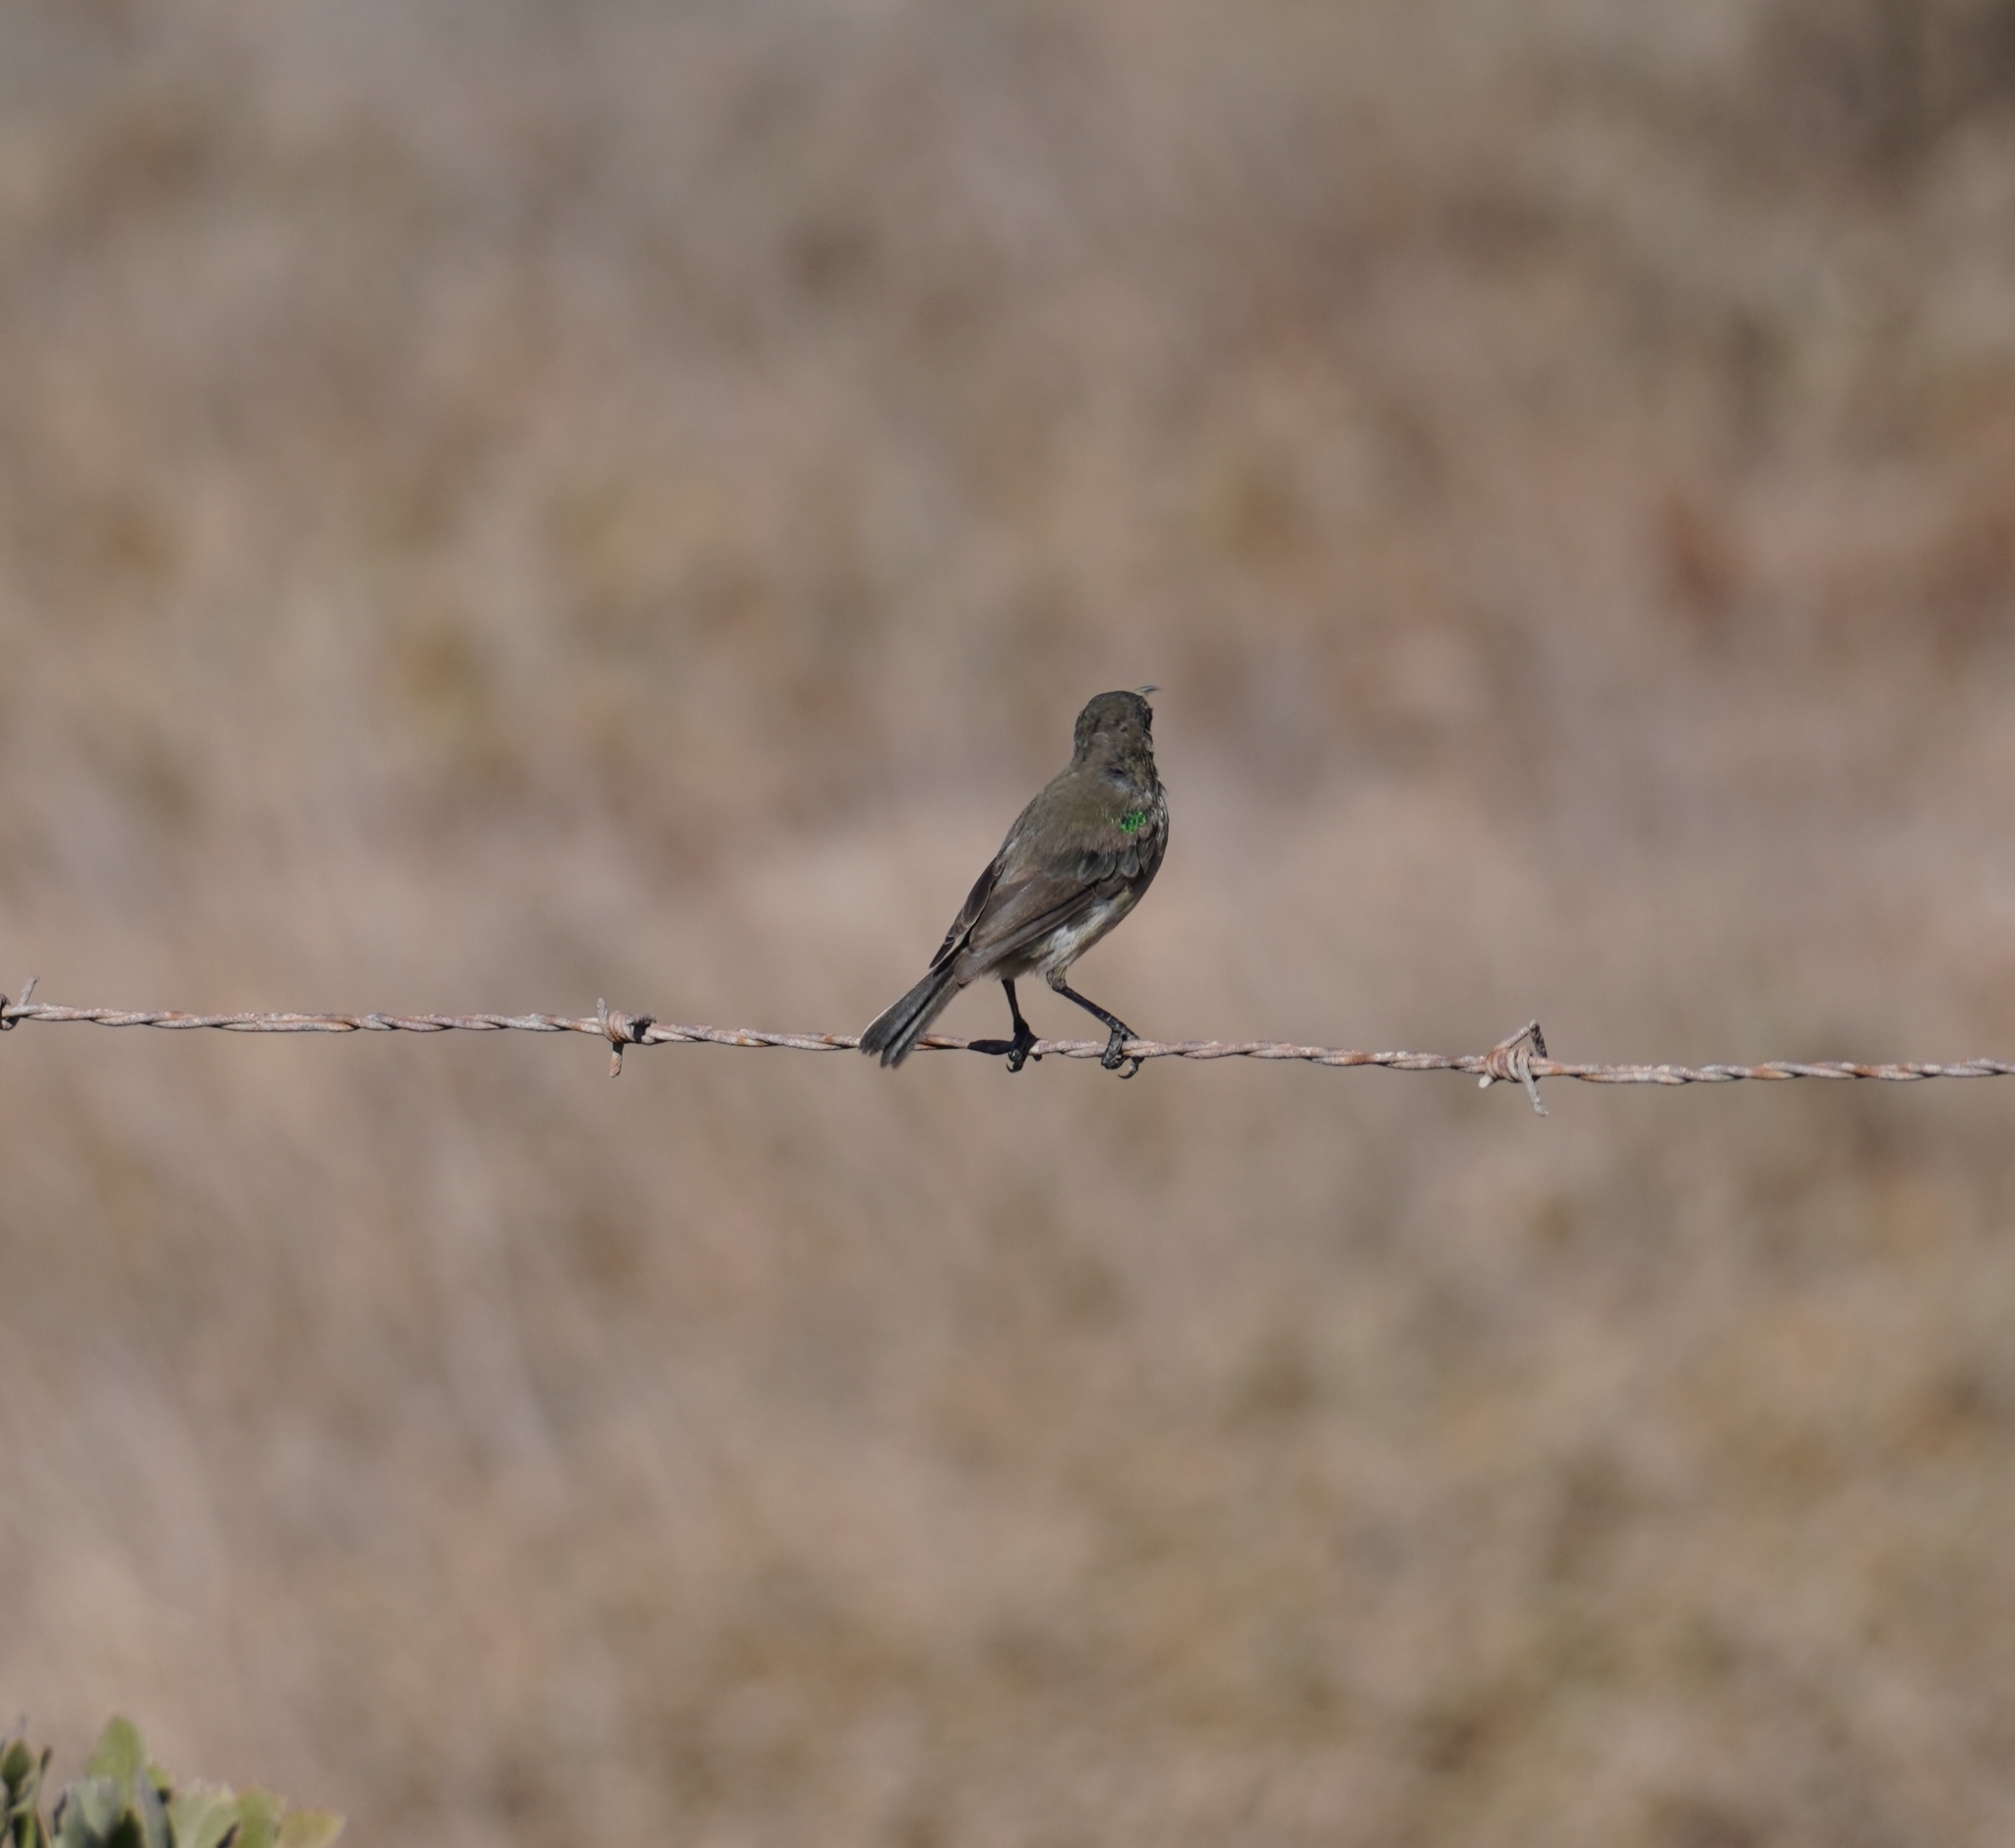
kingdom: Animalia
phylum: Chordata
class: Aves
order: Passeriformes
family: Nectariniidae
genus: Cinnyris
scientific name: Cinnyris chalybeus
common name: Southern double-collared sunbird
